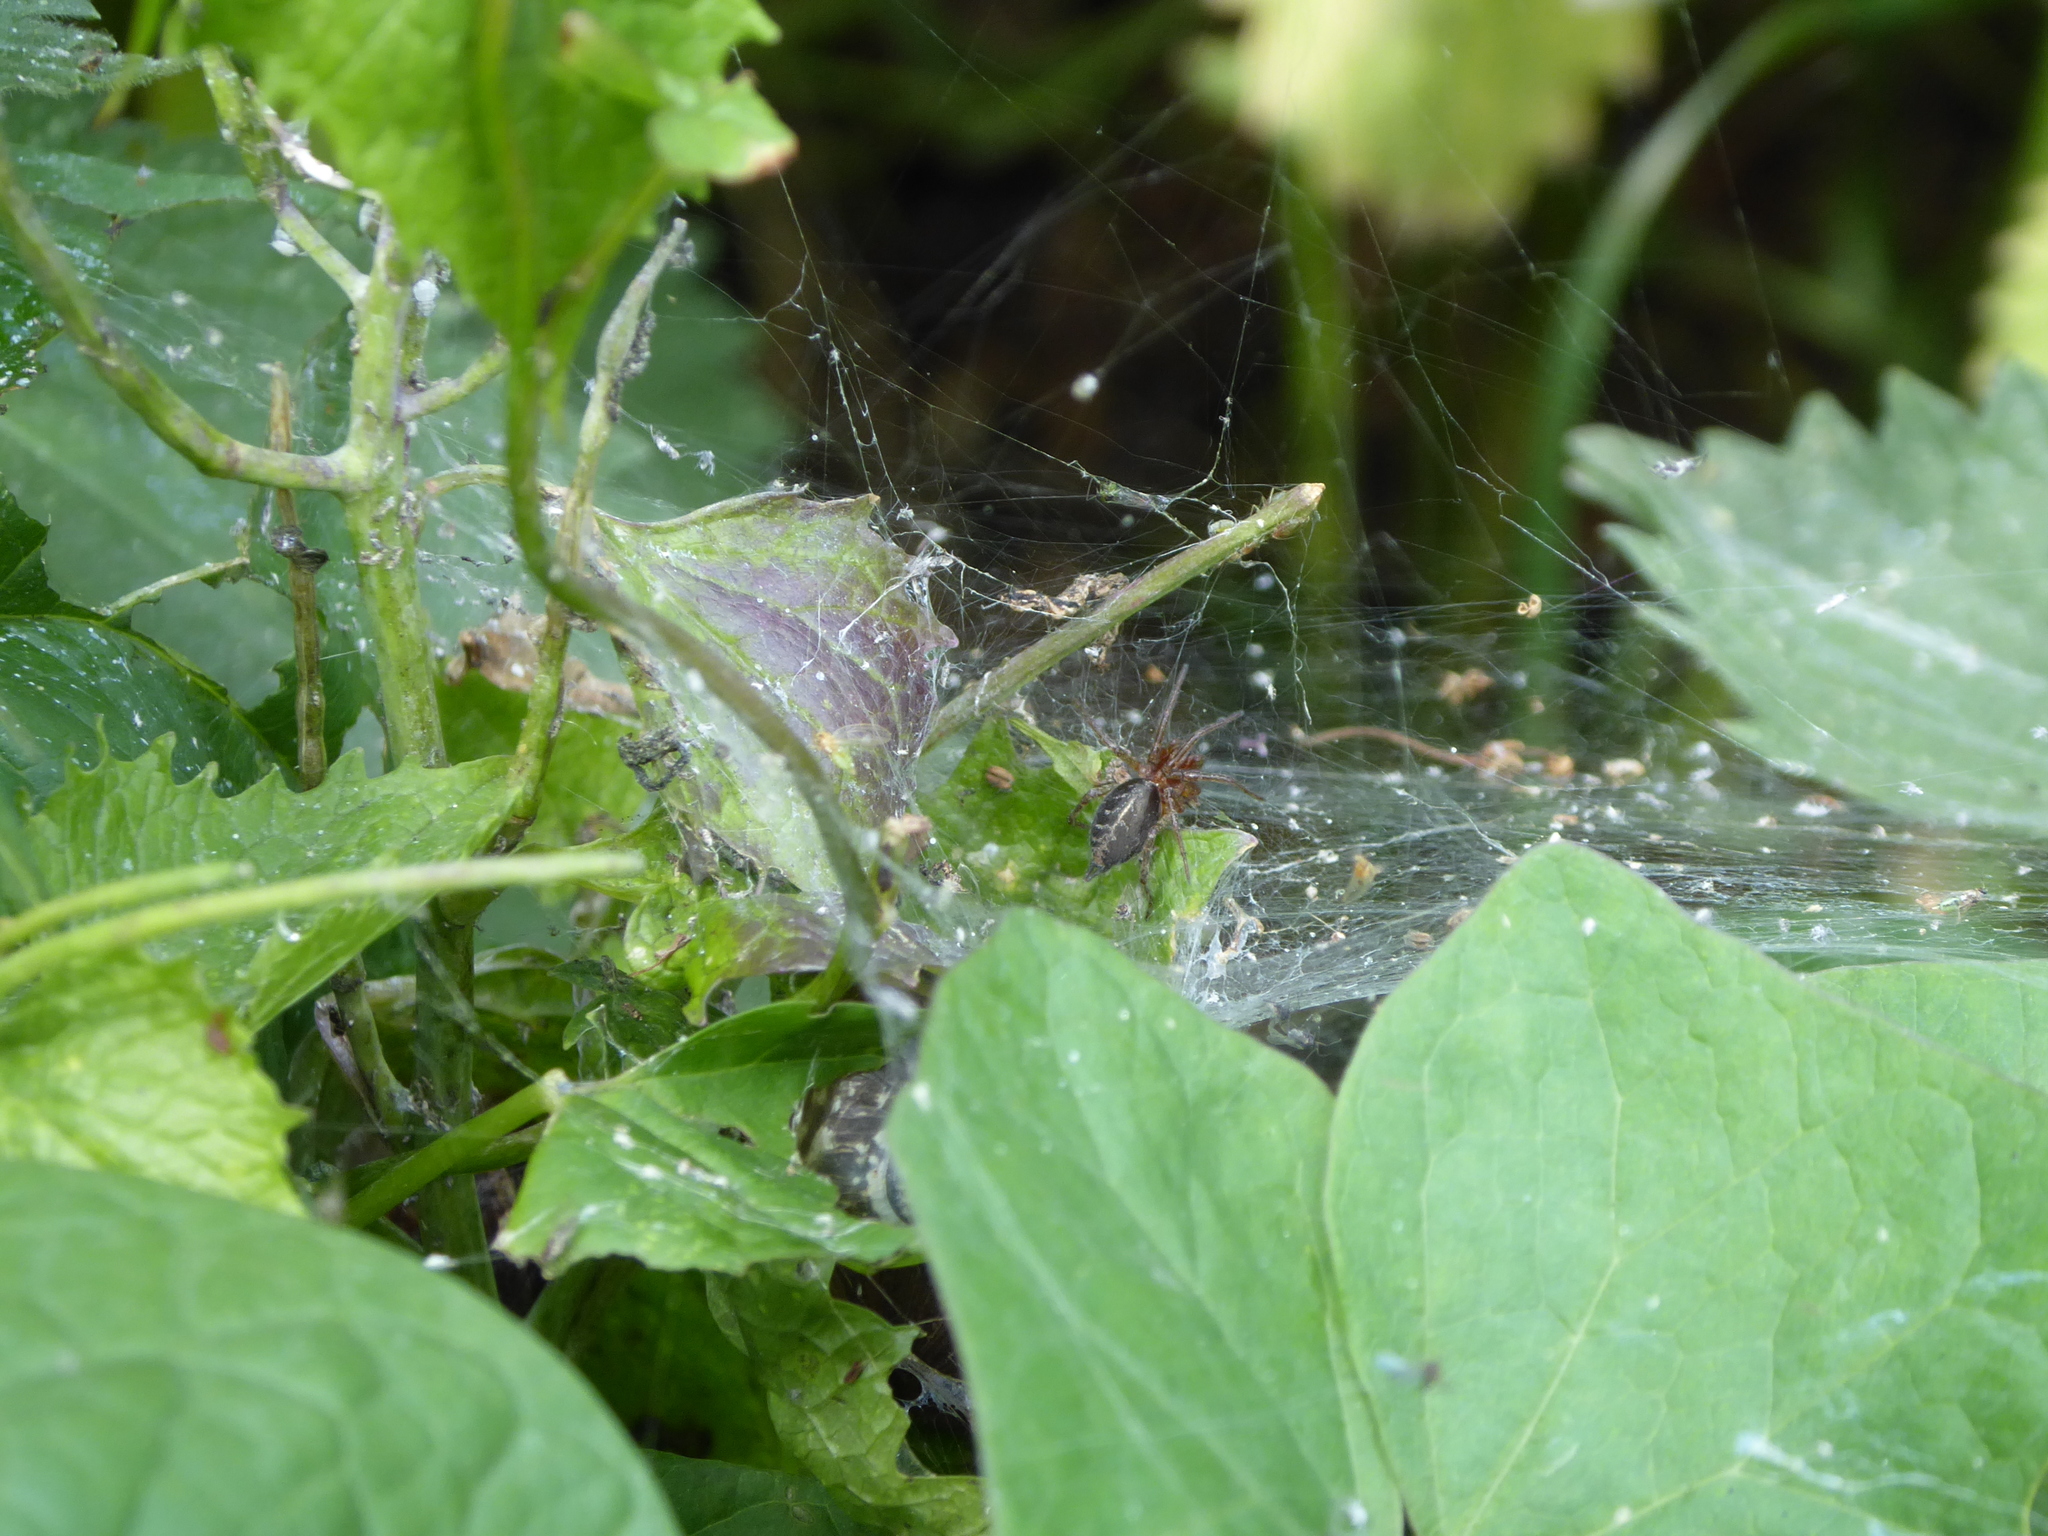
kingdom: Animalia
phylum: Arthropoda
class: Arachnida
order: Araneae
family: Agelenidae
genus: Agelena
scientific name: Agelena labyrinthica
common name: Labyrinth spider
